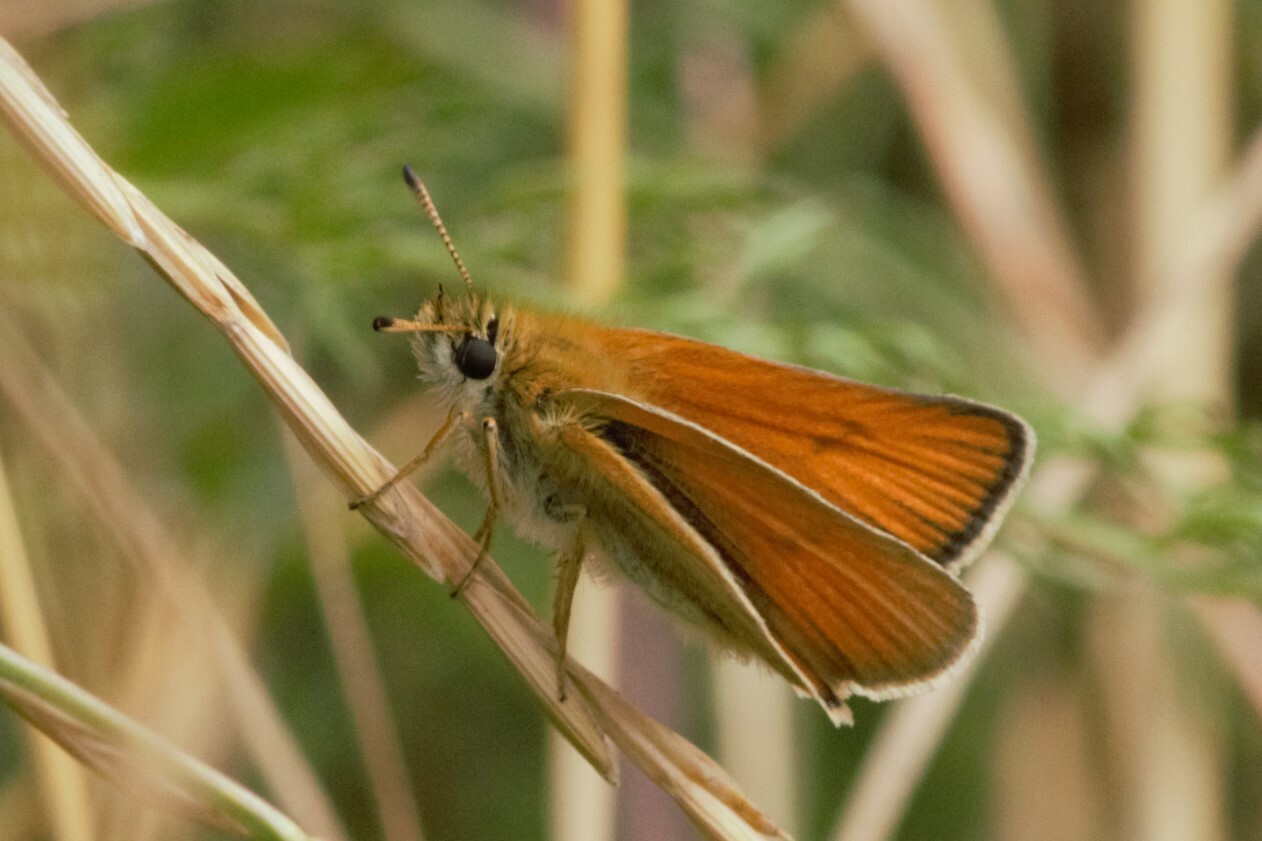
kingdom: Animalia
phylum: Arthropoda
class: Insecta
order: Lepidoptera
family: Hesperiidae
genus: Thymelicus
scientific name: Thymelicus lineola
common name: Essex skipper
